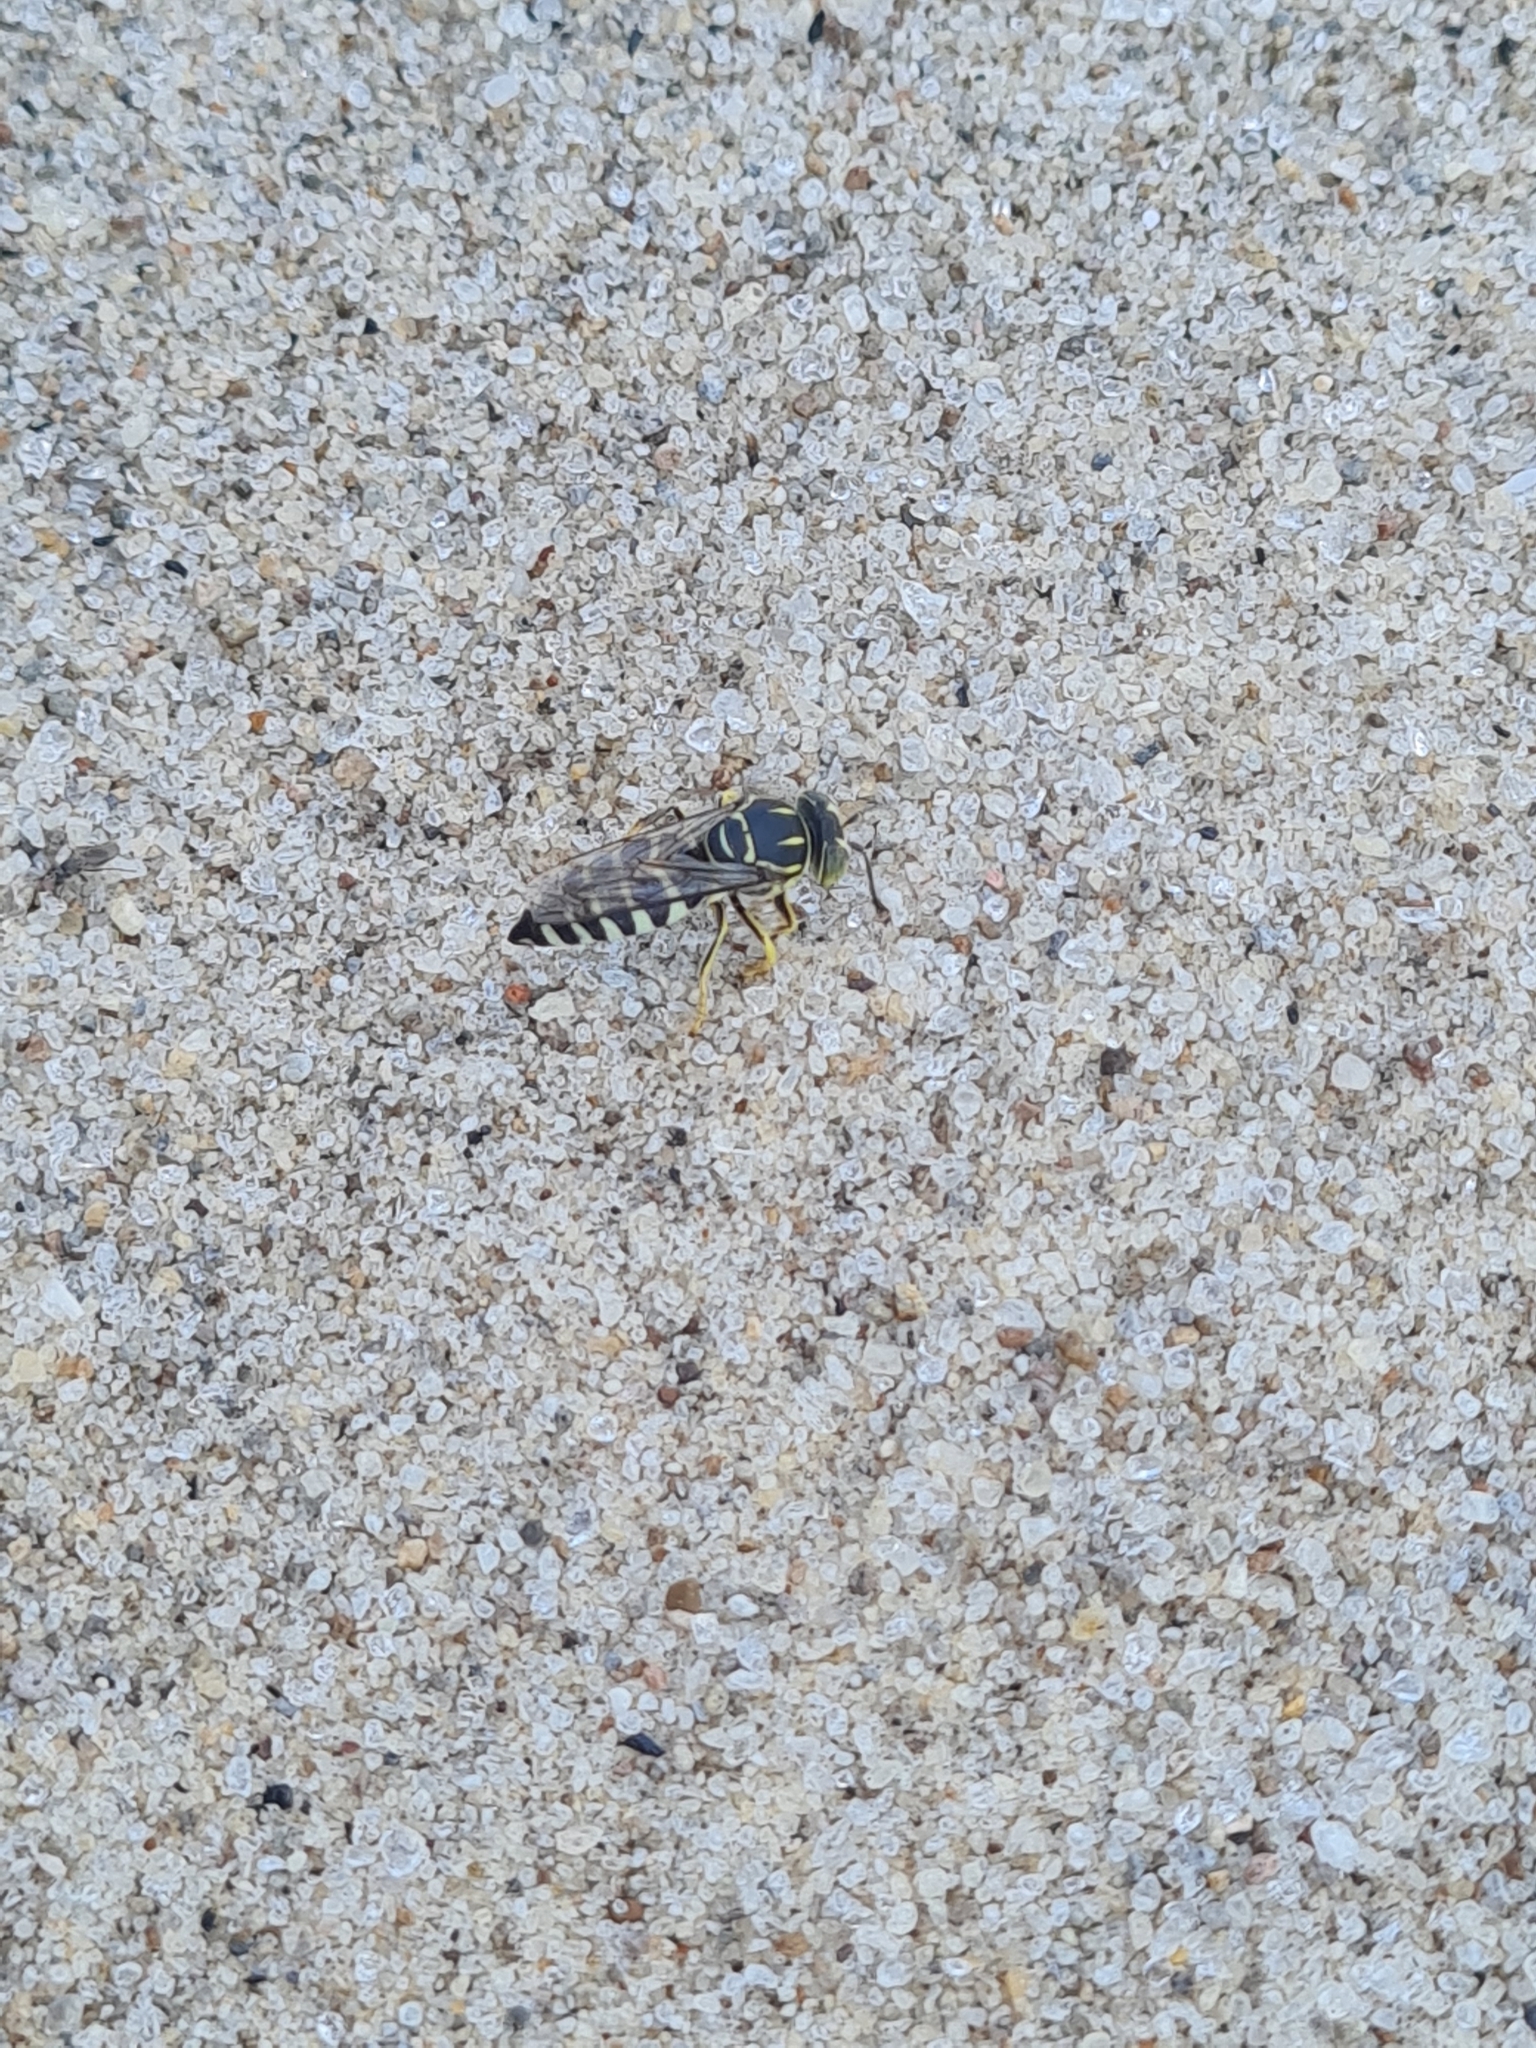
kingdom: Animalia
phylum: Arthropoda
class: Insecta
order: Hymenoptera
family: Crabronidae
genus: Bicyrtes
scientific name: Bicyrtes variegatus
